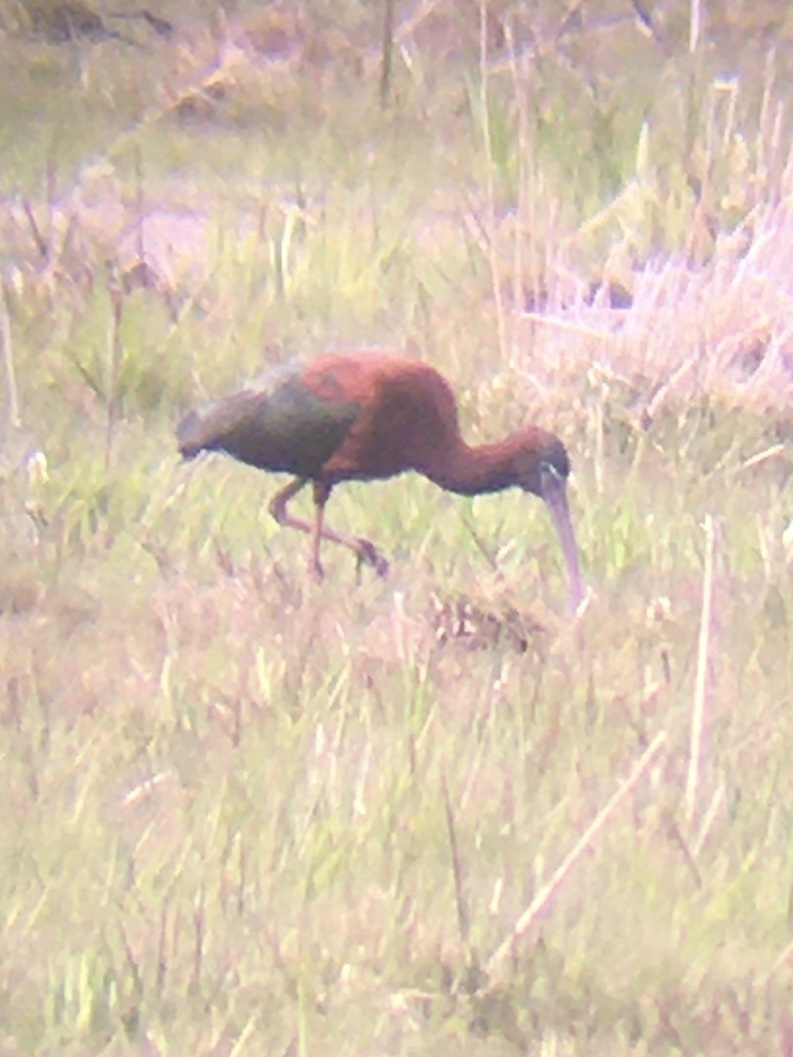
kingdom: Animalia
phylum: Chordata
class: Aves
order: Pelecaniformes
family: Threskiornithidae
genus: Plegadis
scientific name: Plegadis falcinellus
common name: Glossy ibis
